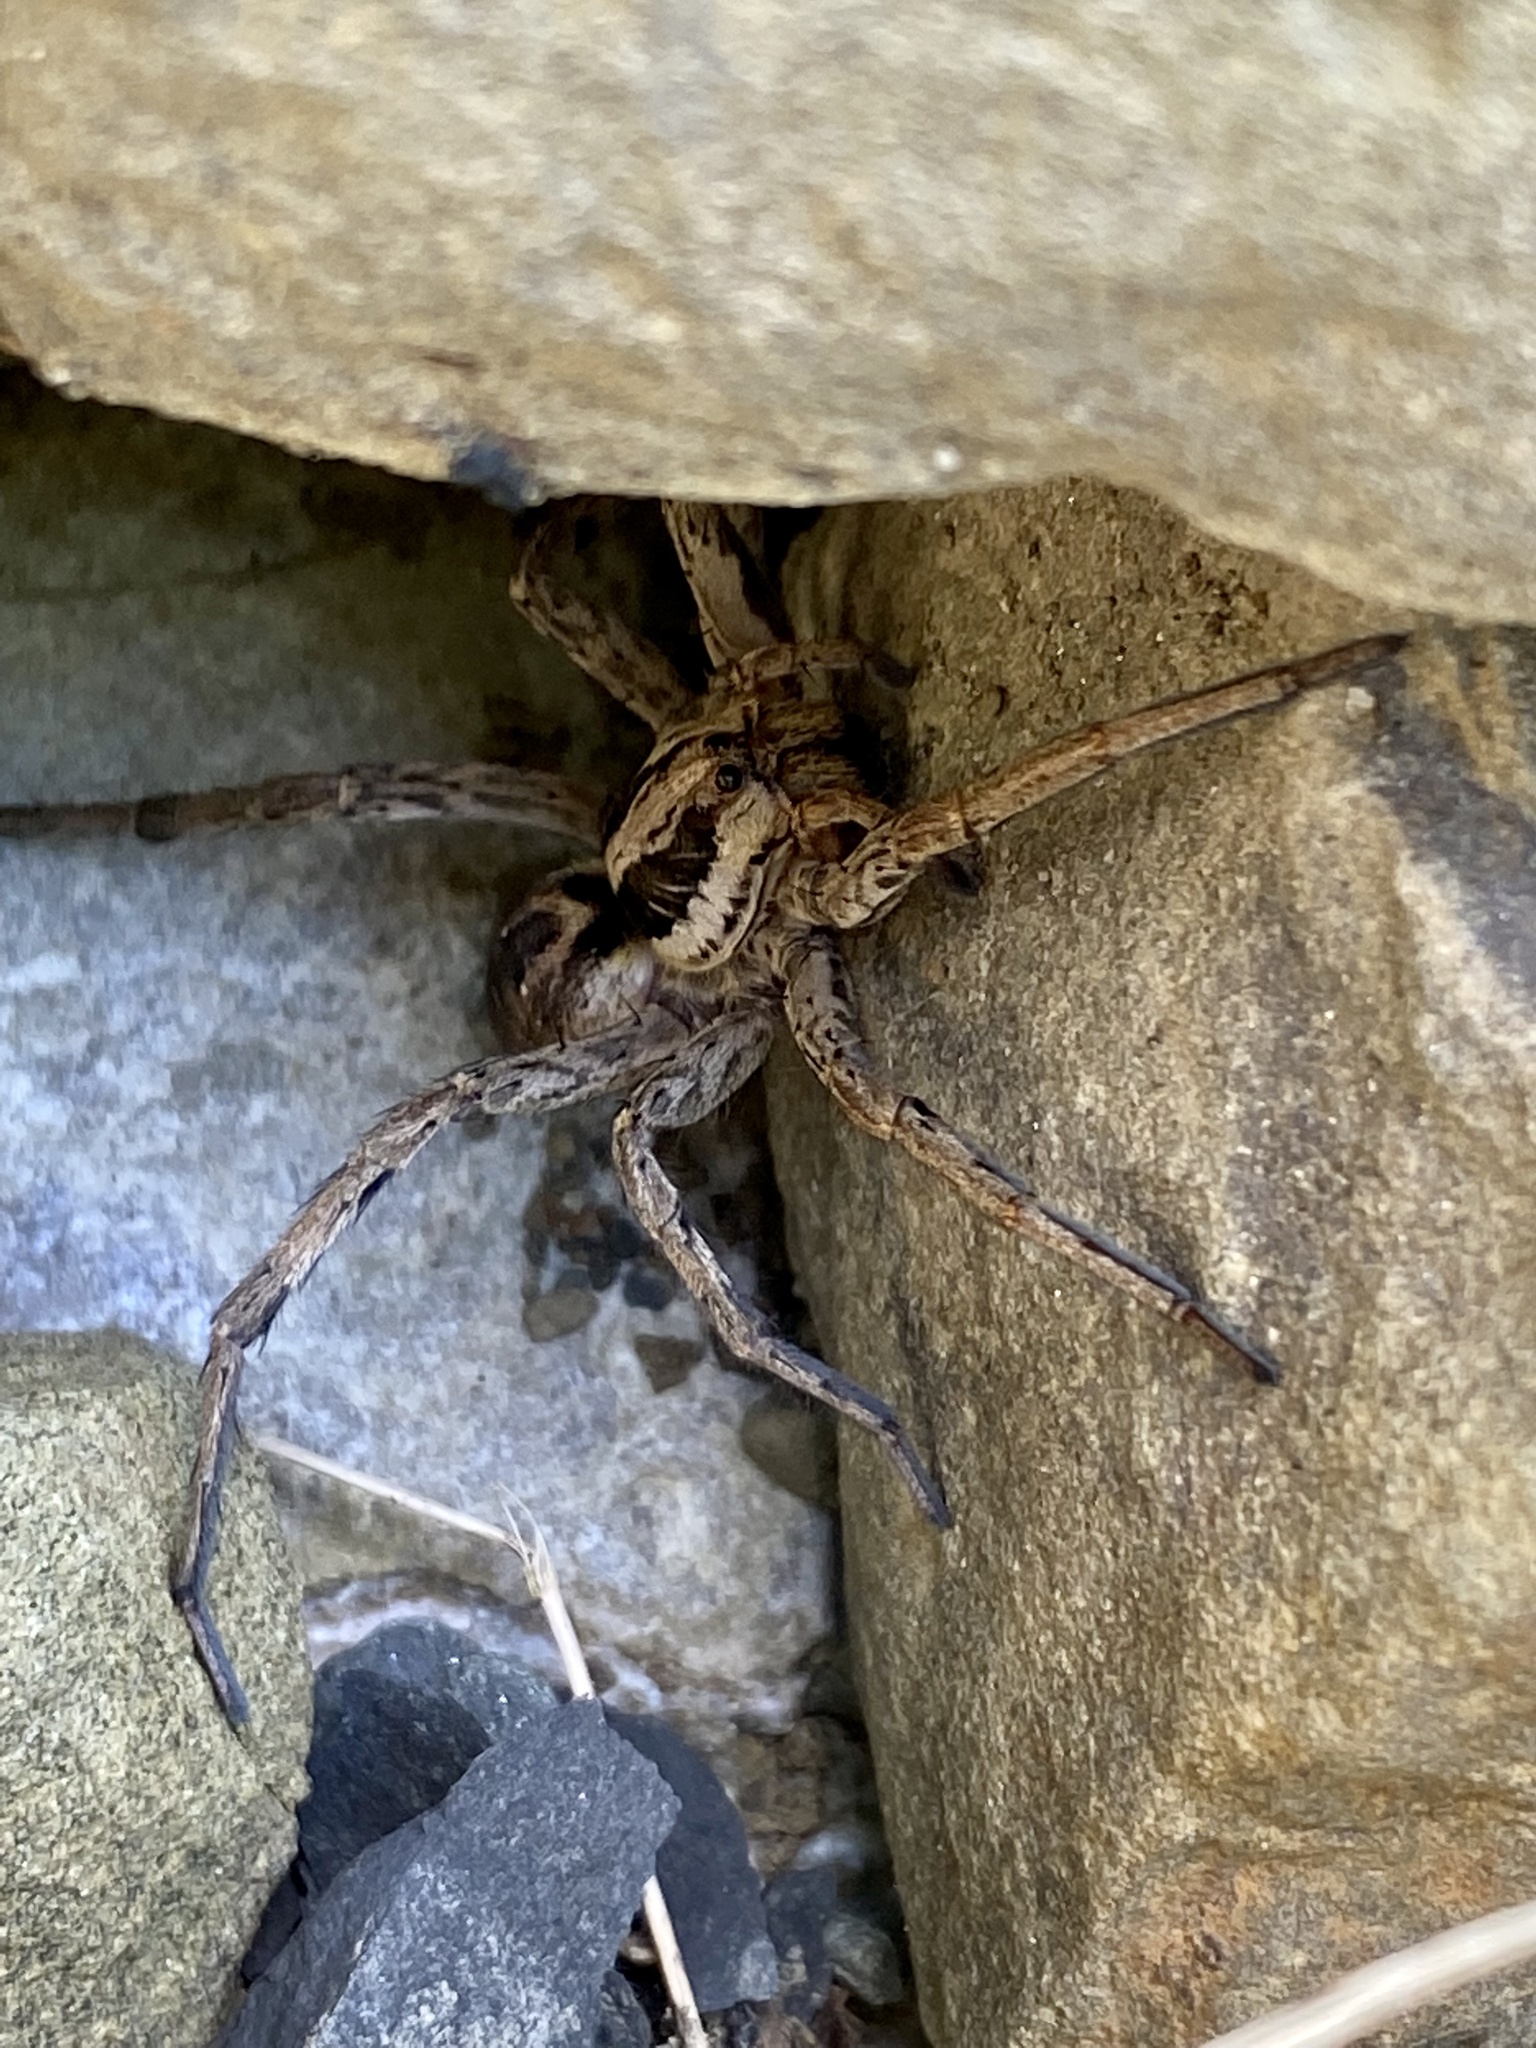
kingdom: Animalia
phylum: Arthropoda
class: Arachnida
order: Araneae
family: Lycosidae
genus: Hogna
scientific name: Hogna radiata
